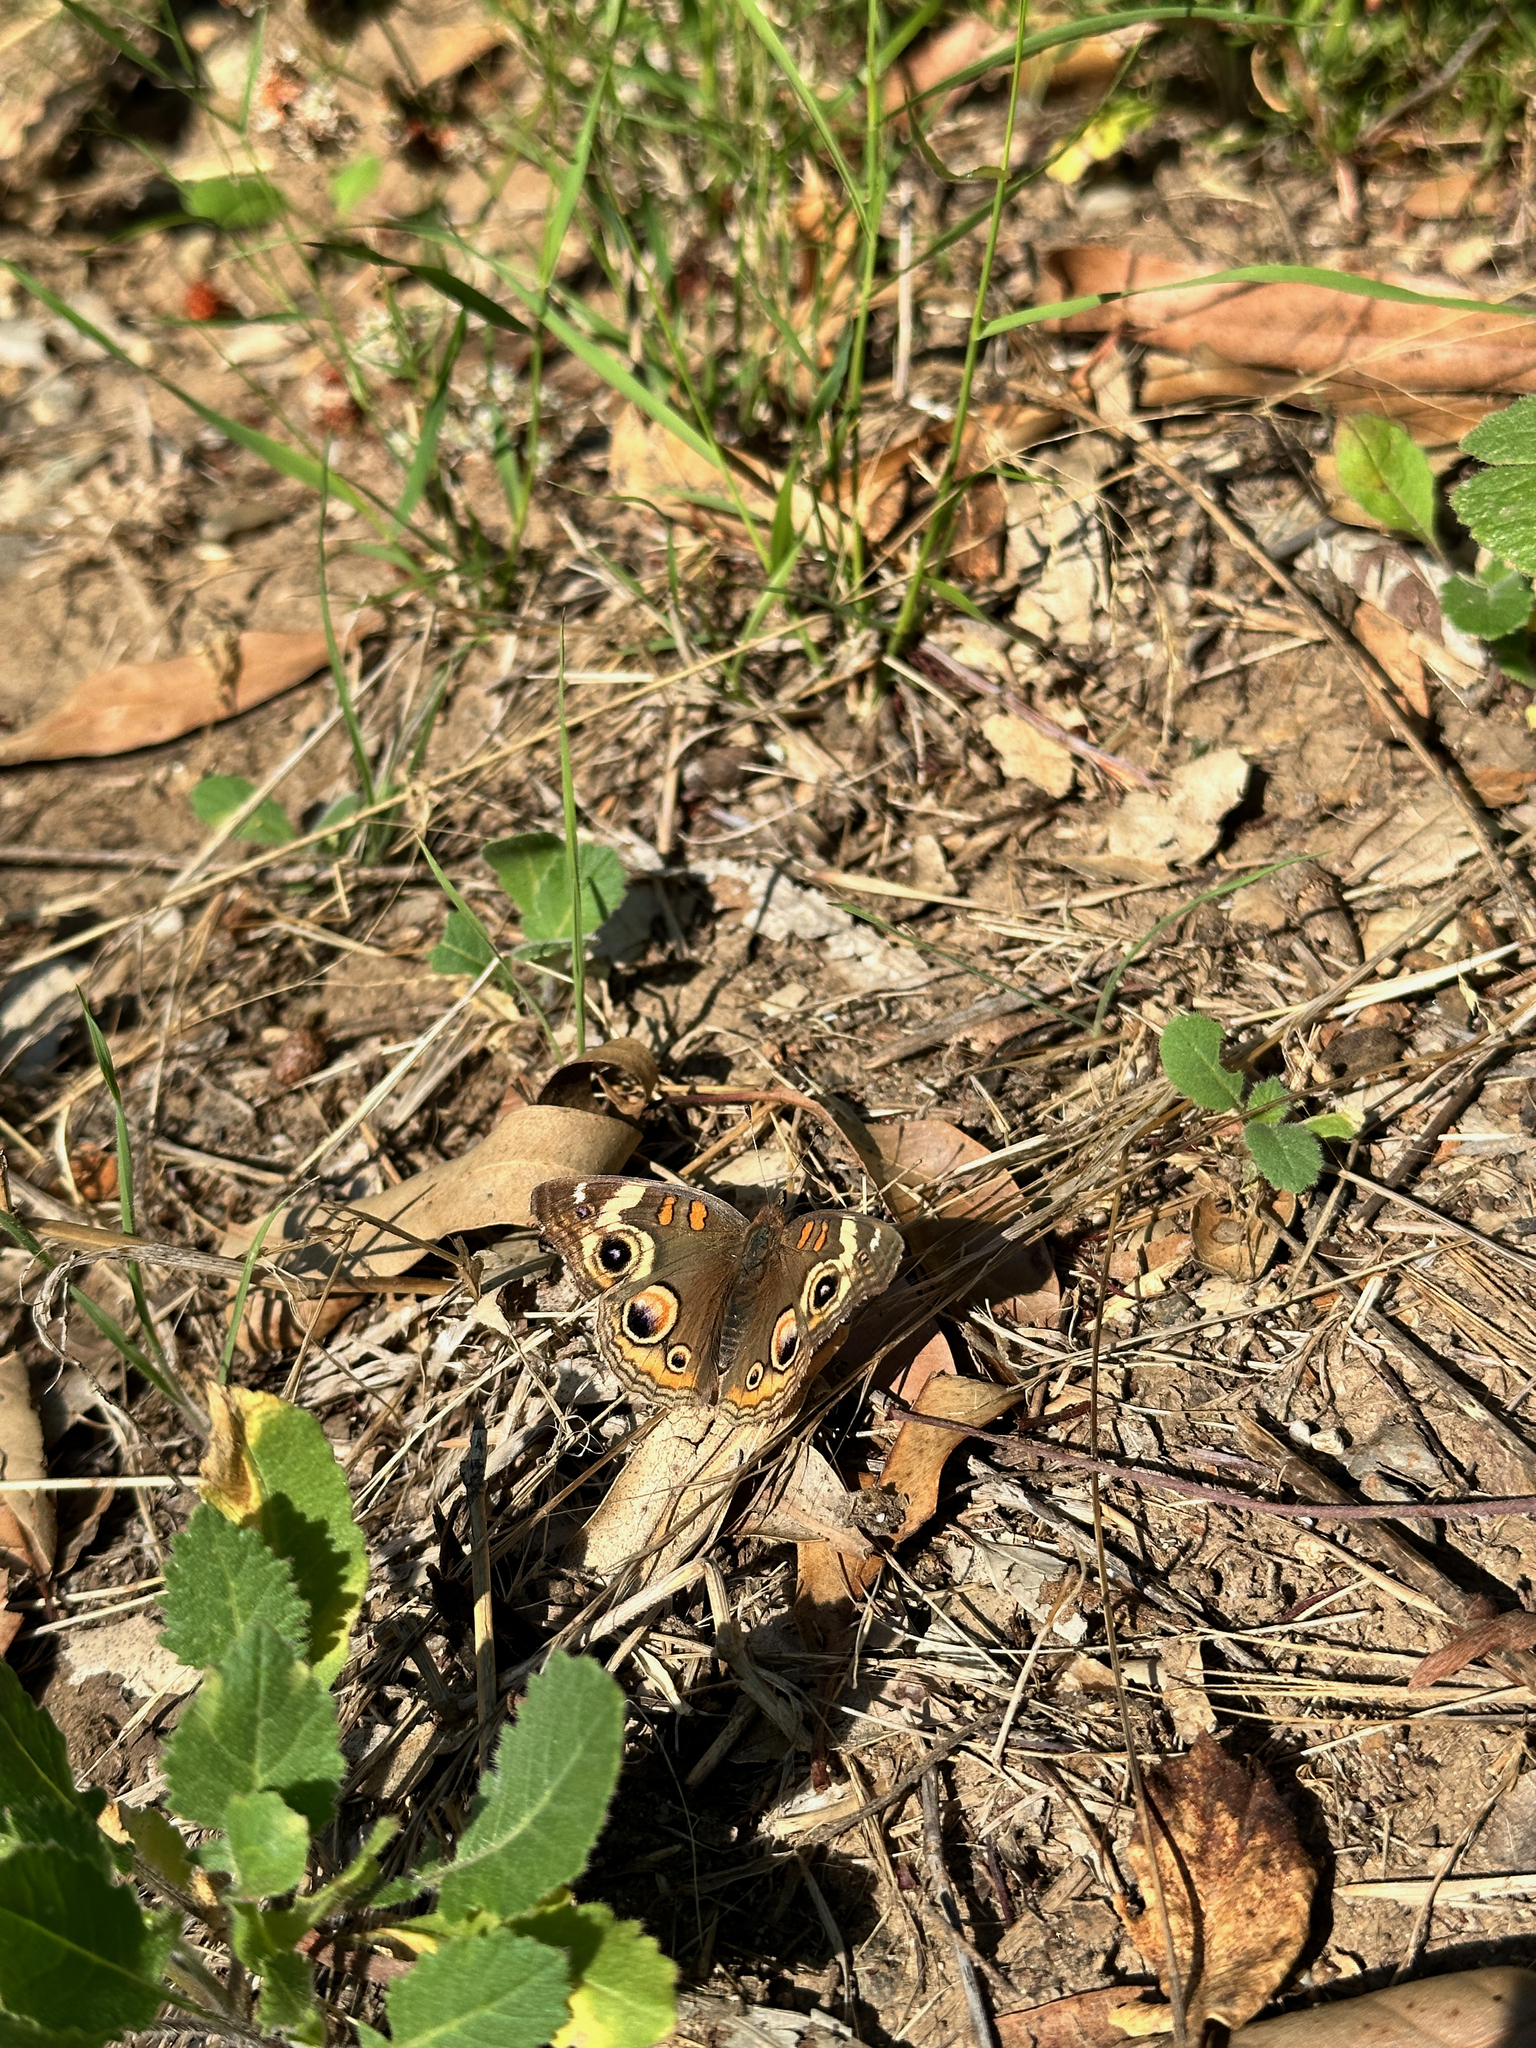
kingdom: Animalia
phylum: Arthropoda
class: Insecta
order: Lepidoptera
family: Nymphalidae
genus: Junonia
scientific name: Junonia grisea
